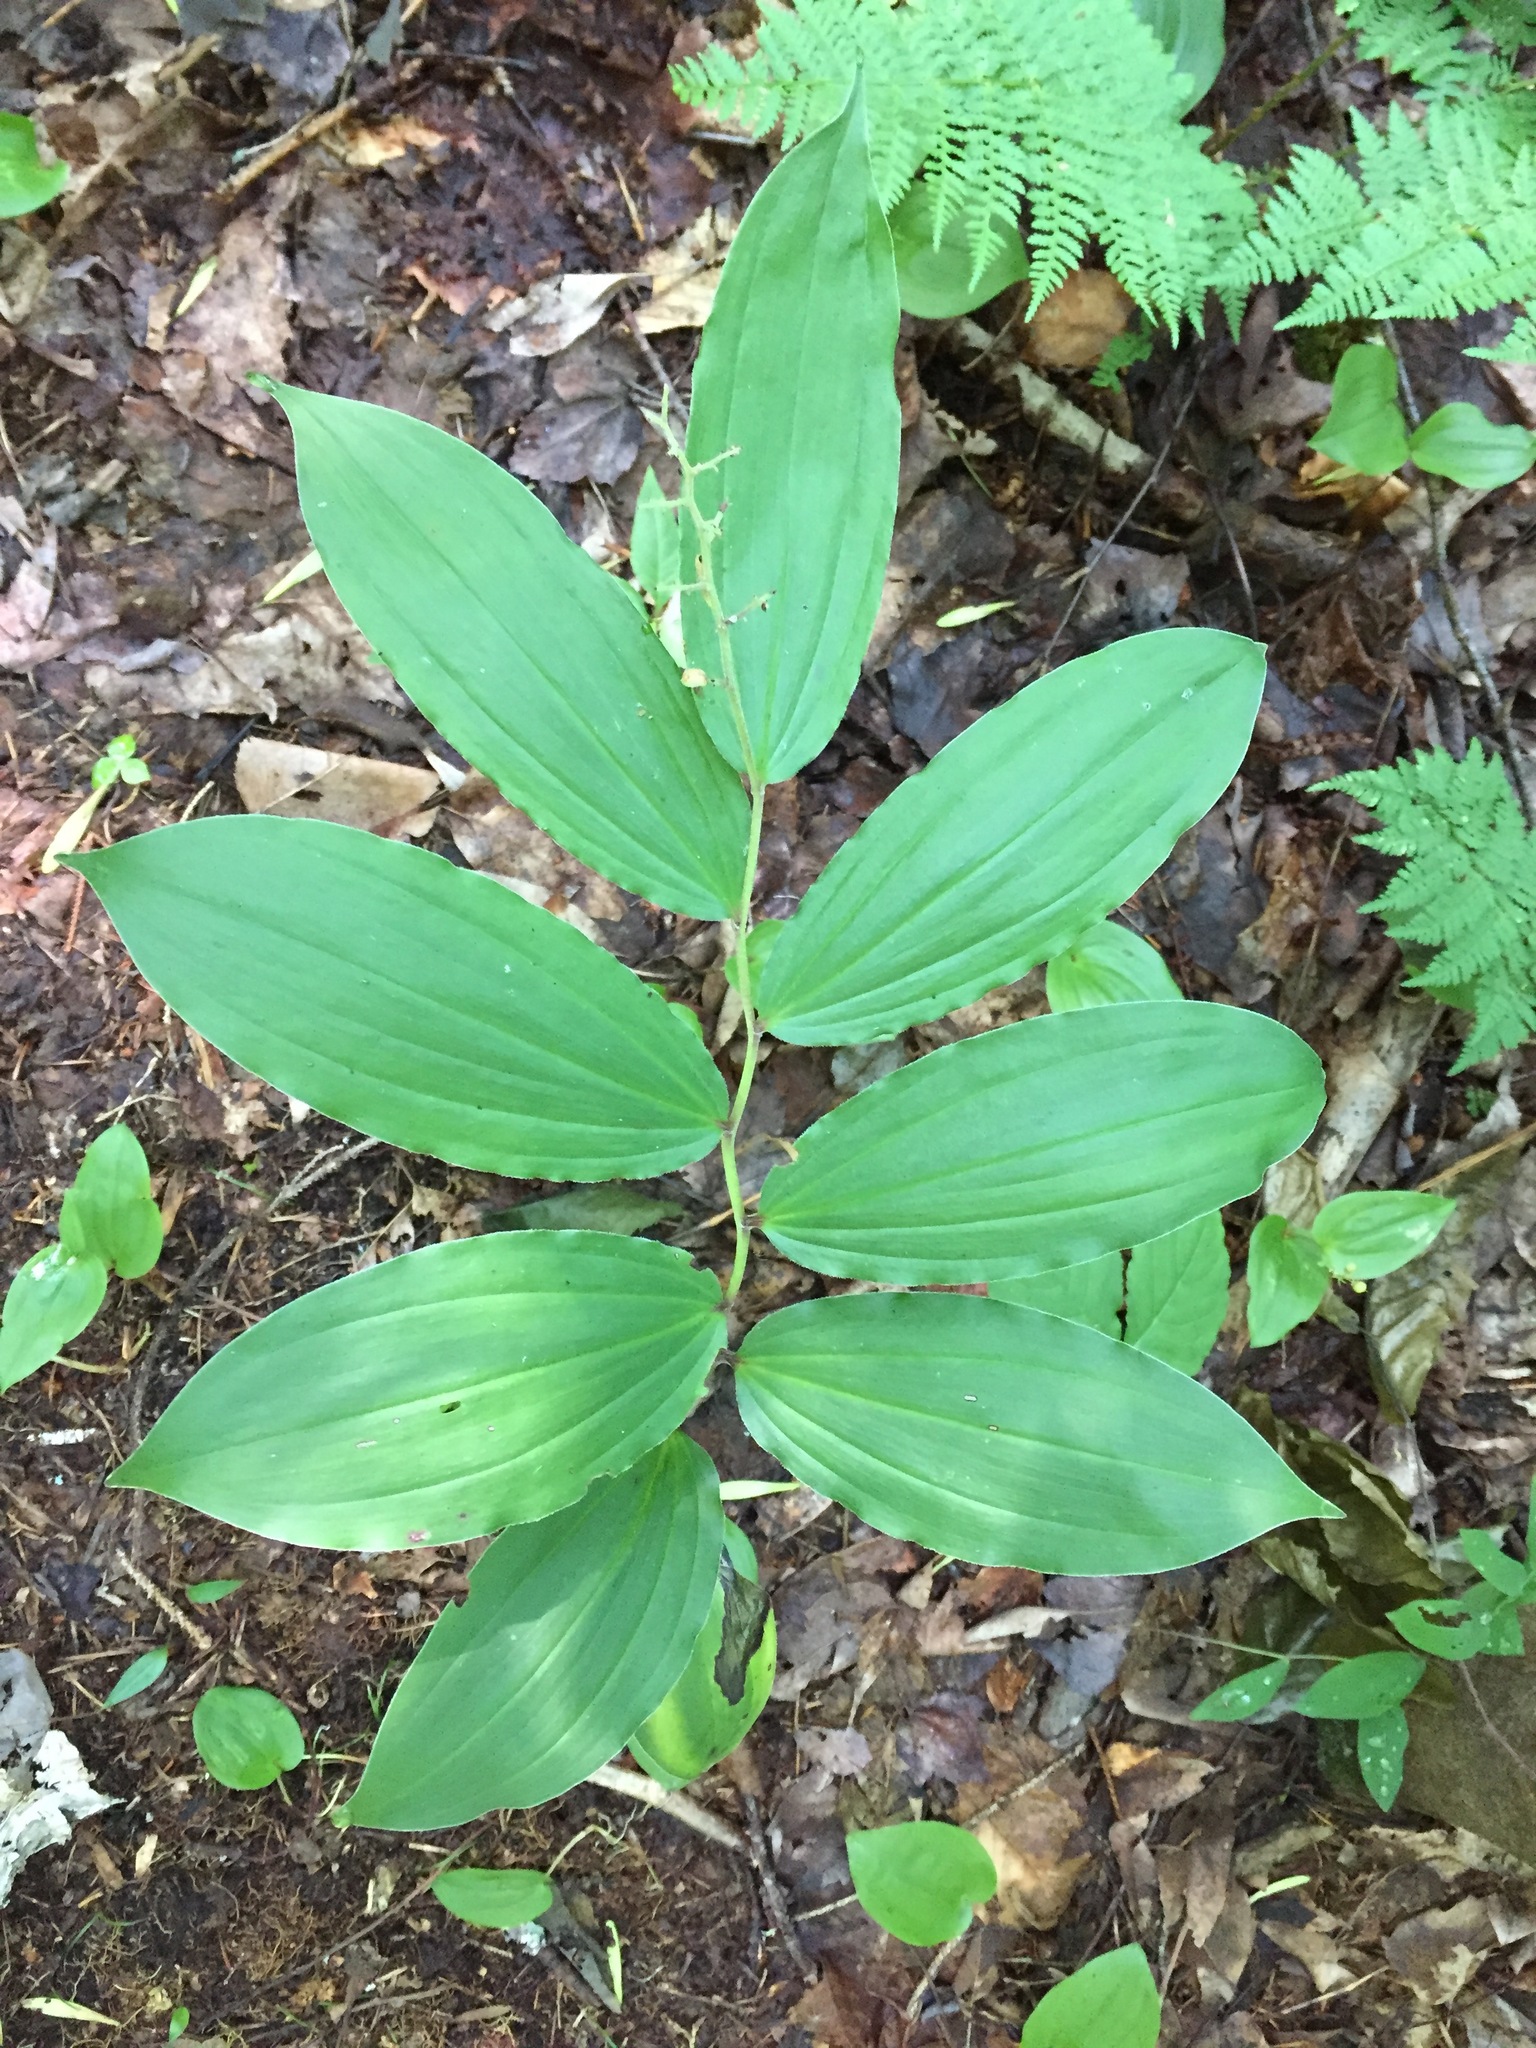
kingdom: Plantae
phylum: Tracheophyta
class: Liliopsida
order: Asparagales
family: Asparagaceae
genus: Maianthemum
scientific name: Maianthemum racemosum
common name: False spikenard
